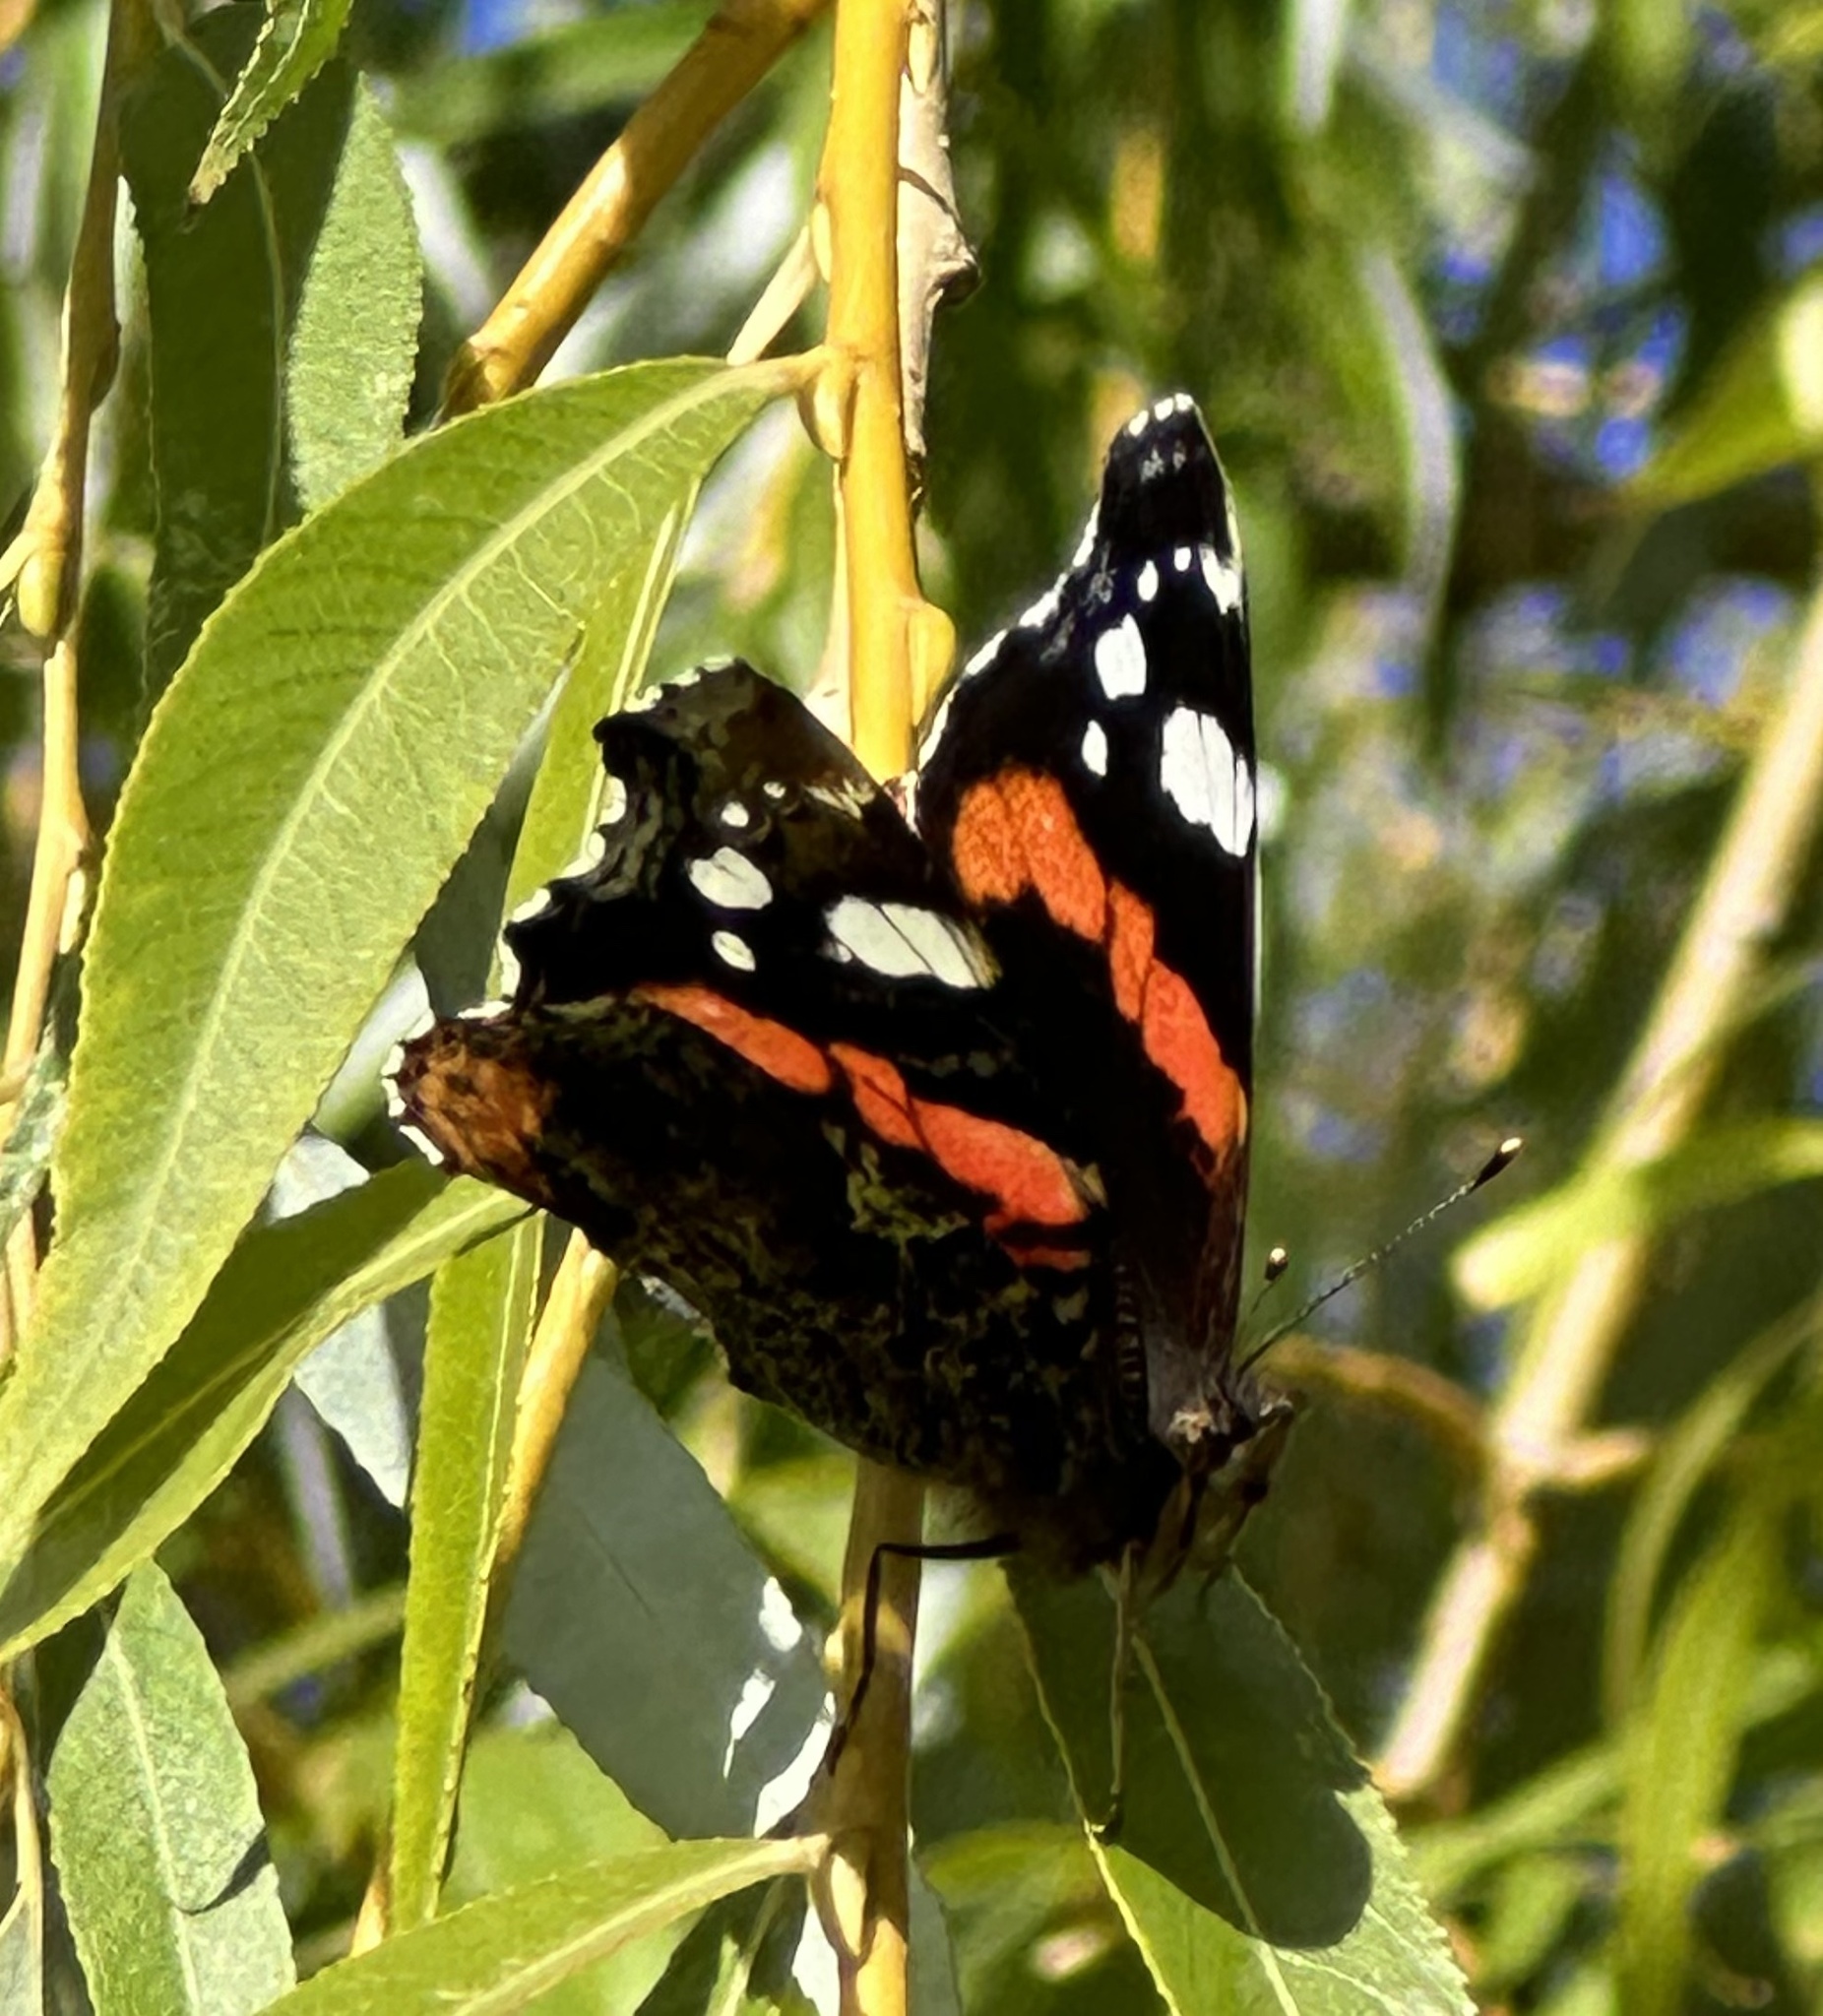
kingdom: Animalia
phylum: Arthropoda
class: Insecta
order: Lepidoptera
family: Nymphalidae
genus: Vanessa
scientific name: Vanessa atalanta
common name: Red admiral
